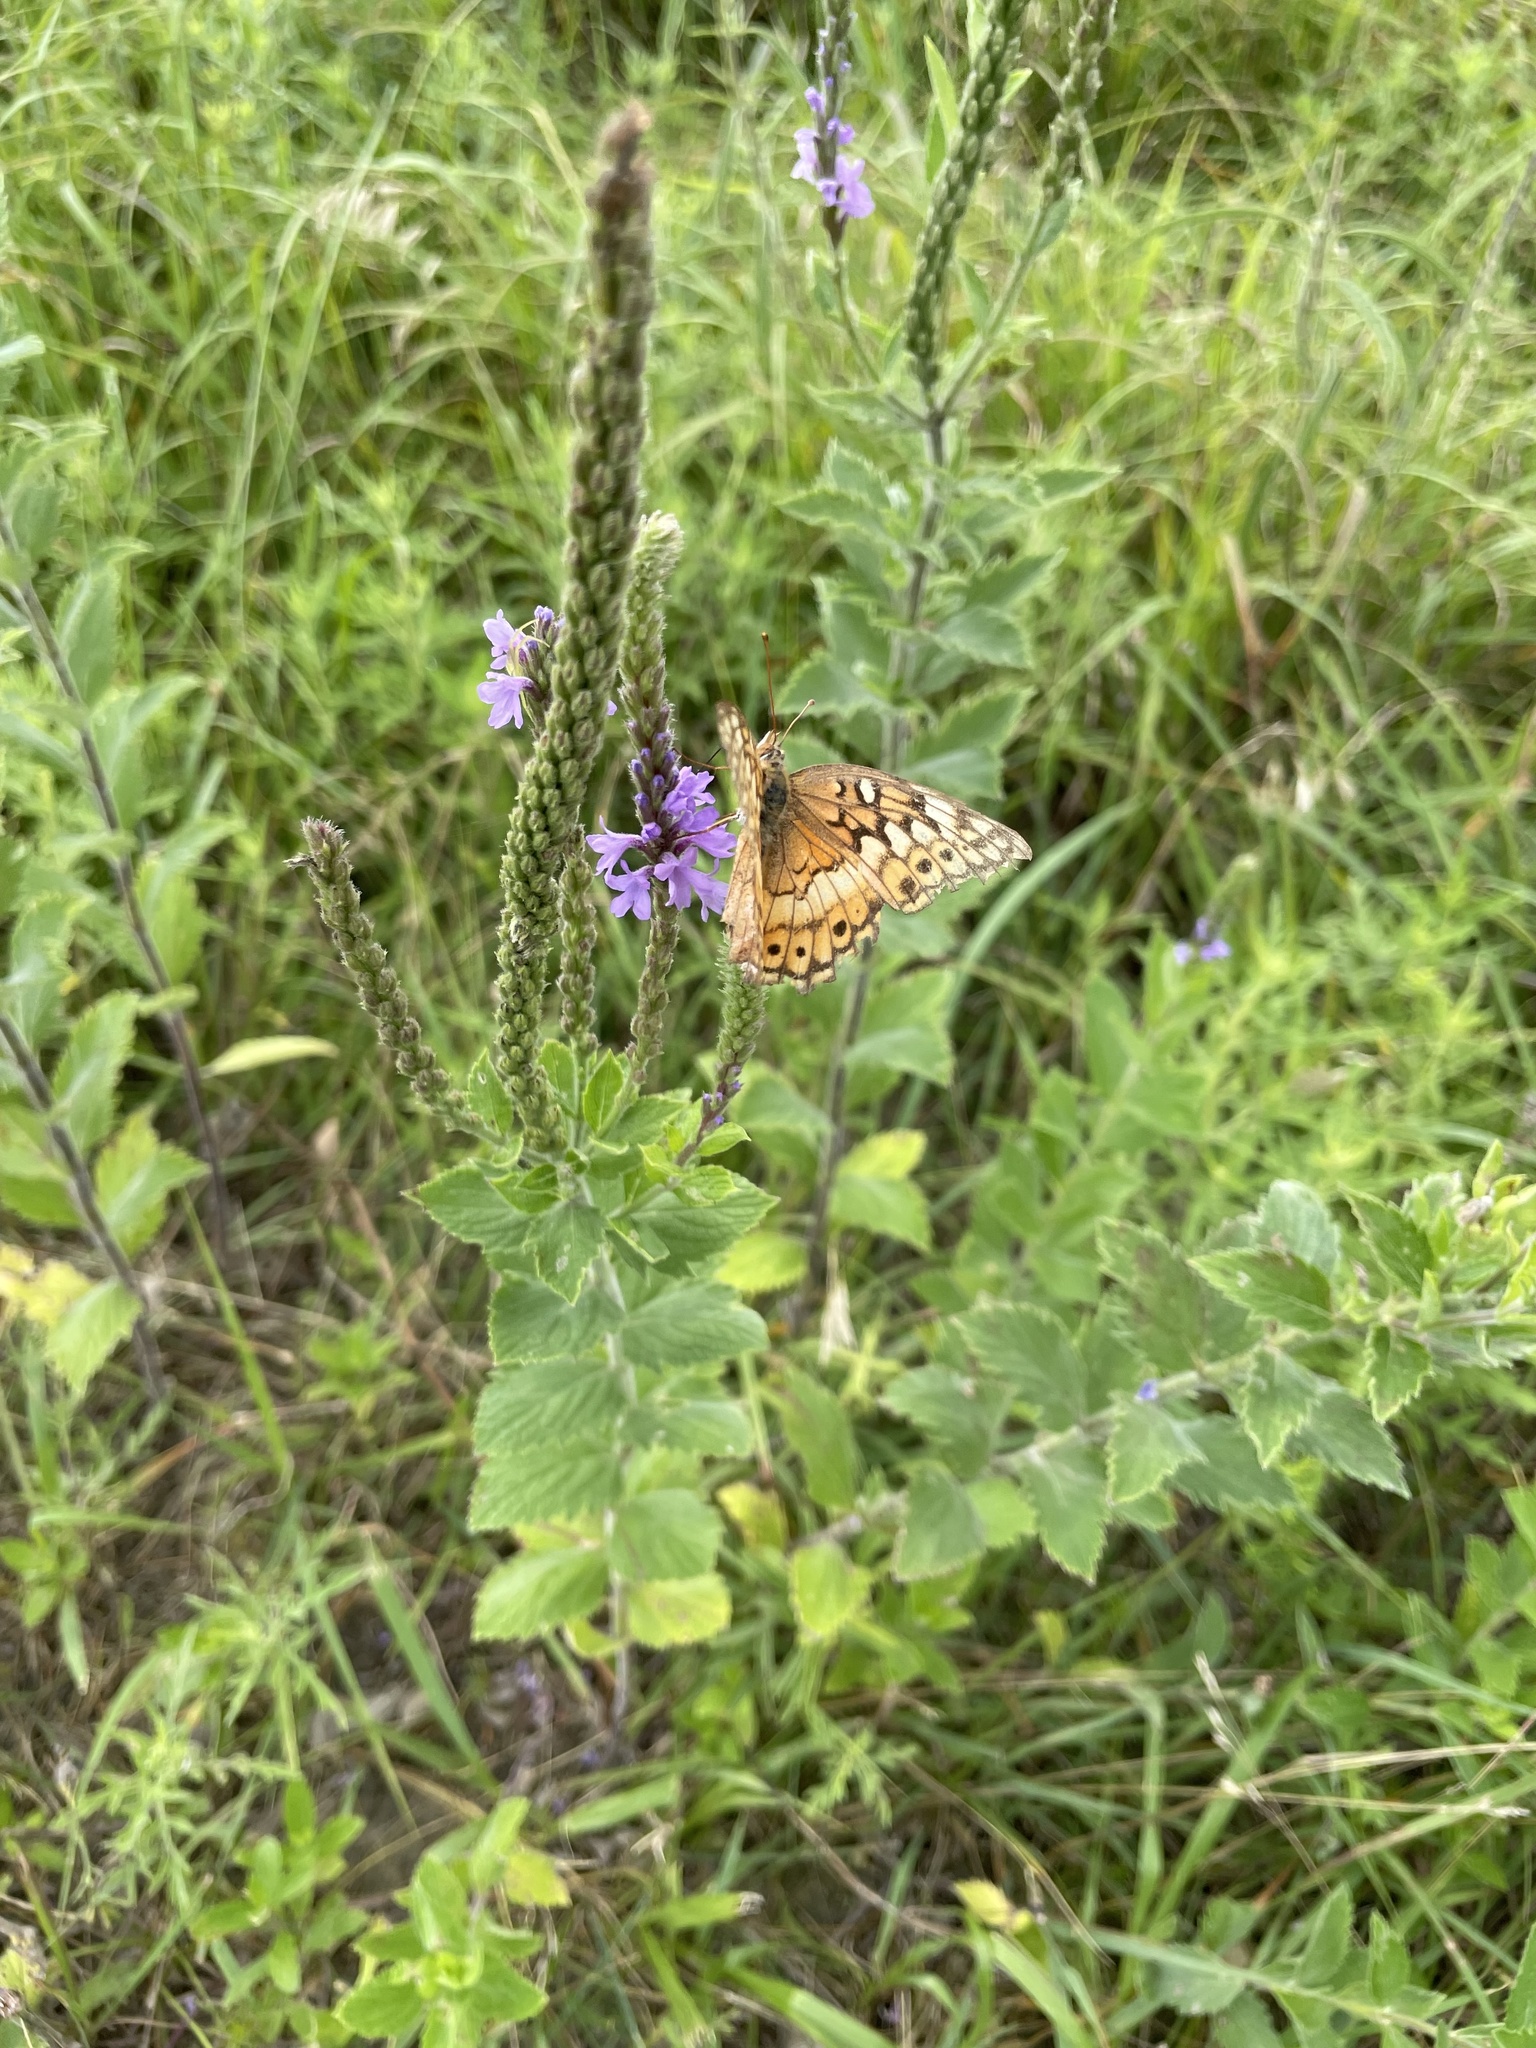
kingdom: Animalia
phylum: Arthropoda
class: Insecta
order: Lepidoptera
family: Nymphalidae
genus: Euptoieta
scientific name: Euptoieta claudia
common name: Variegated fritillary
